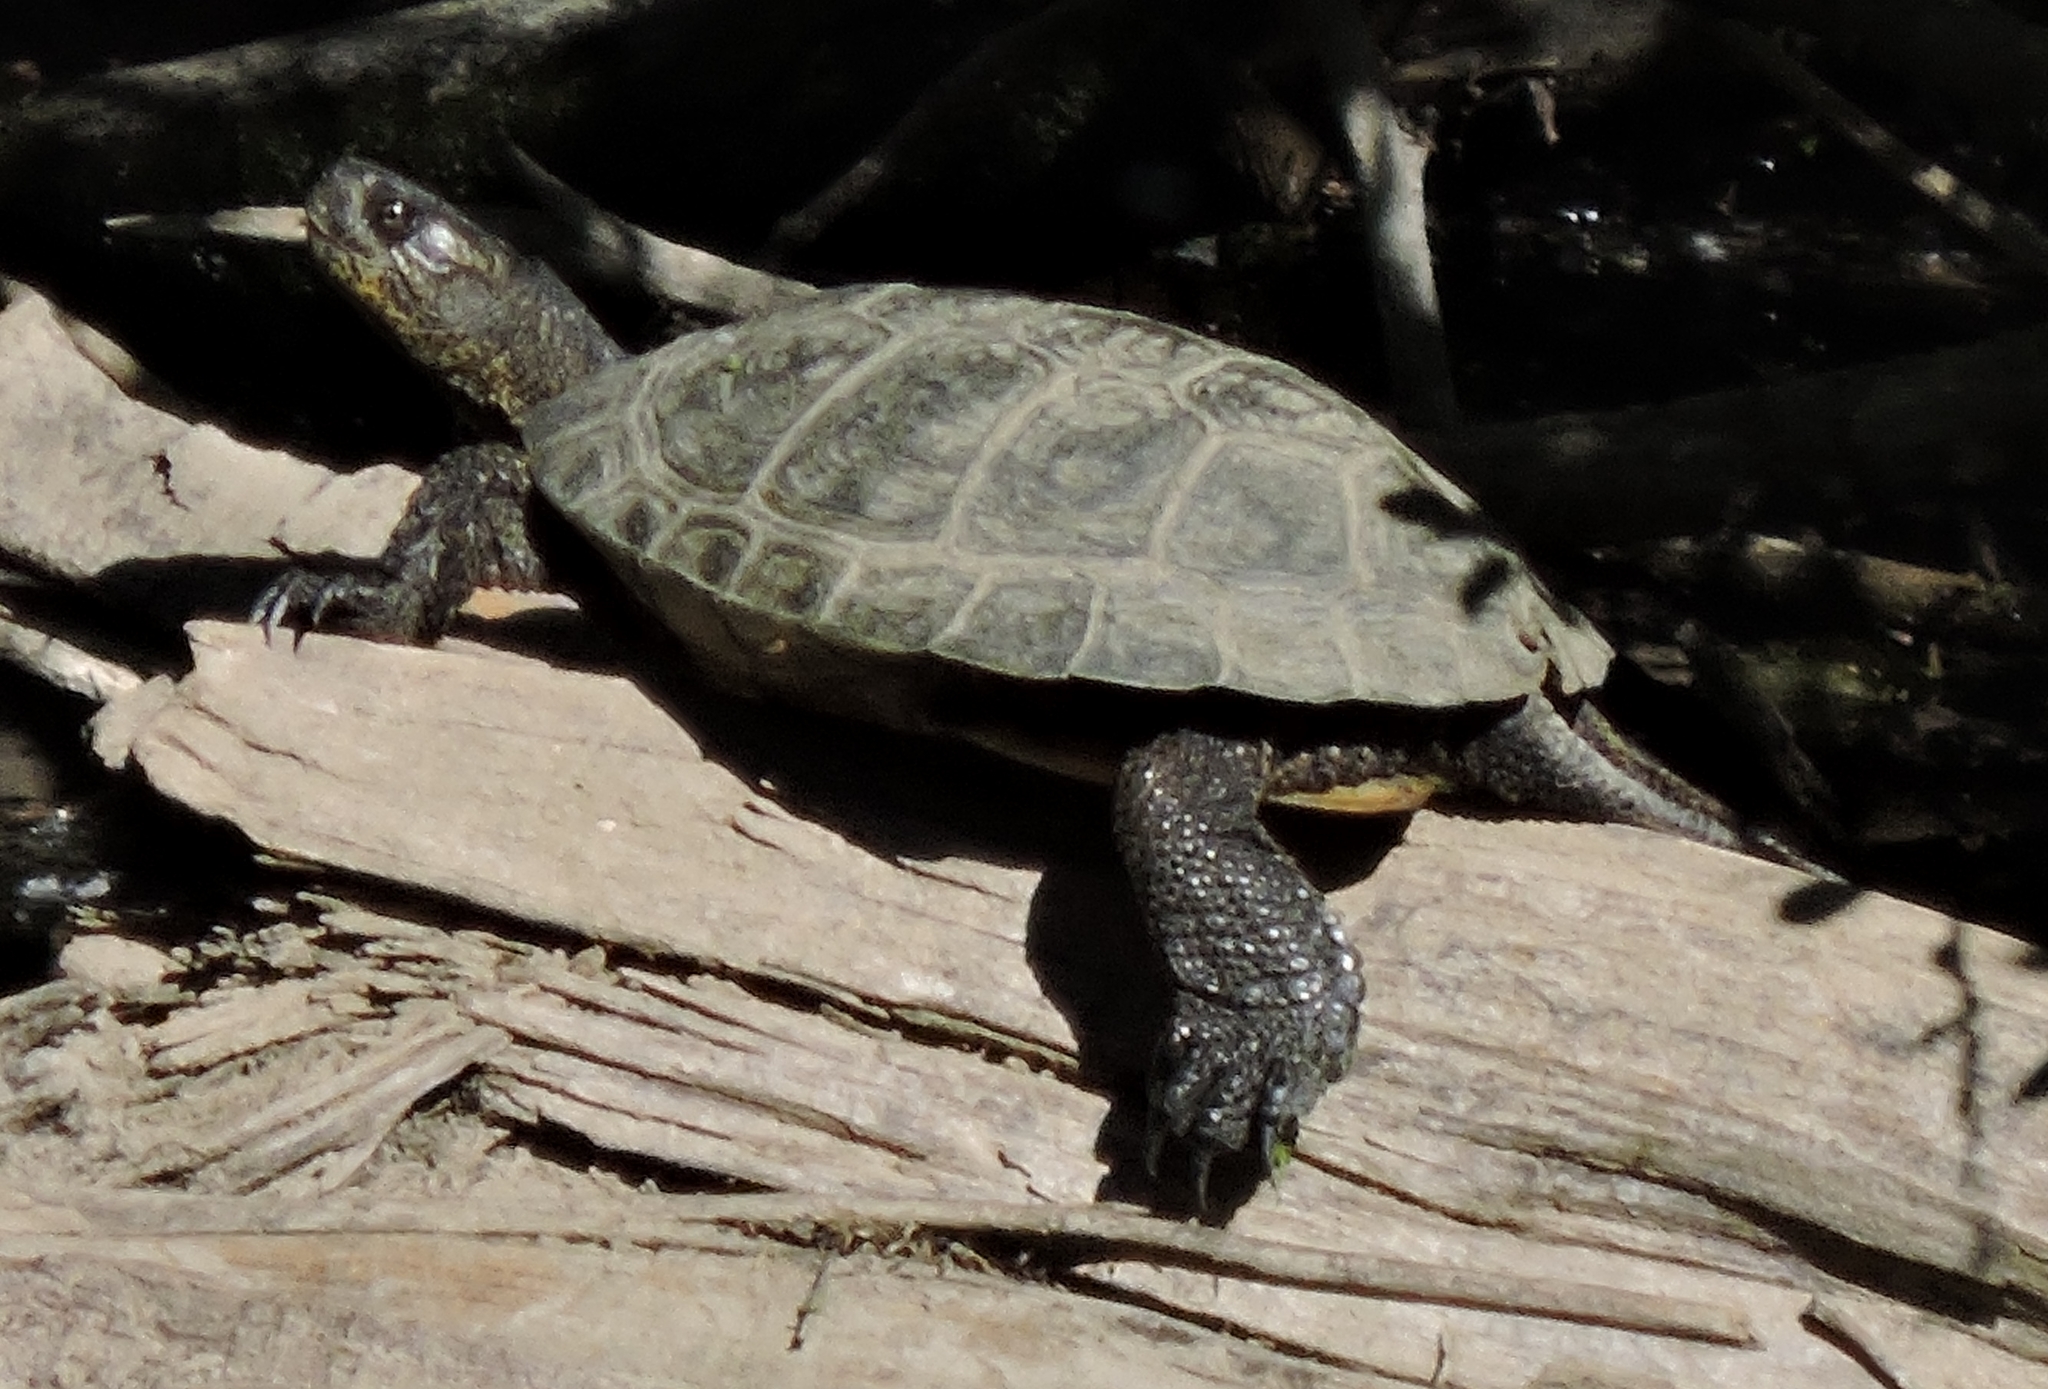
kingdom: Animalia
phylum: Chordata
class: Testudines
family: Emydidae
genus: Actinemys
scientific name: Actinemys marmorata
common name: Western pond turtle
